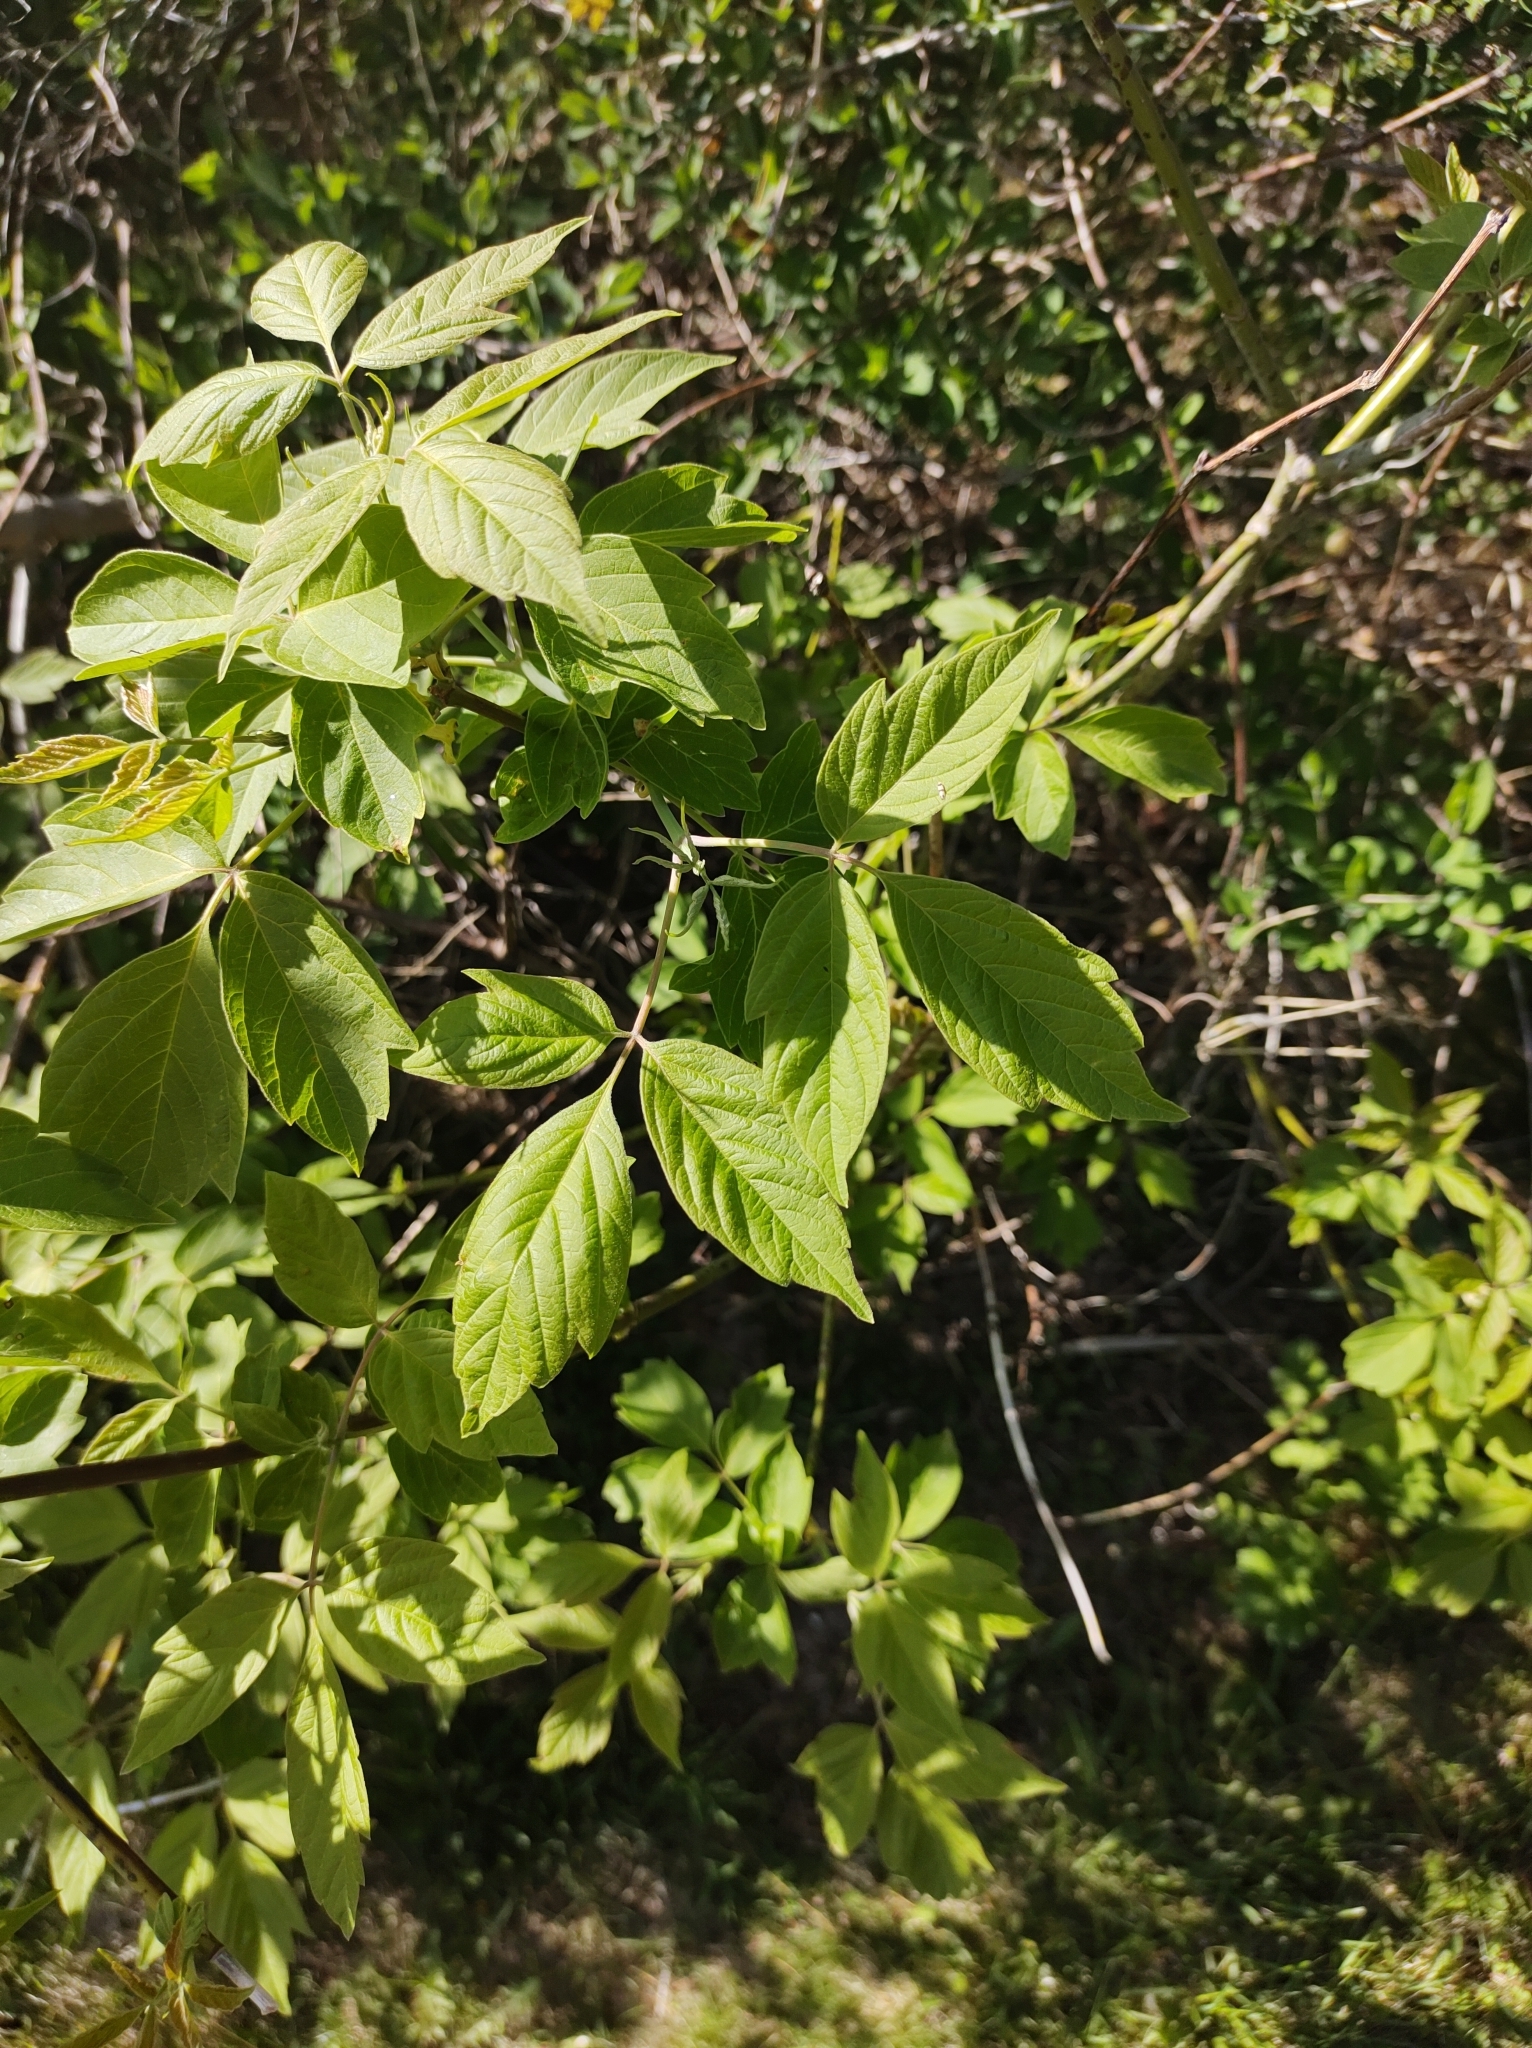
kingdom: Plantae
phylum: Tracheophyta
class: Magnoliopsida
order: Sapindales
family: Sapindaceae
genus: Acer
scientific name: Acer negundo
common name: Ashleaf maple
